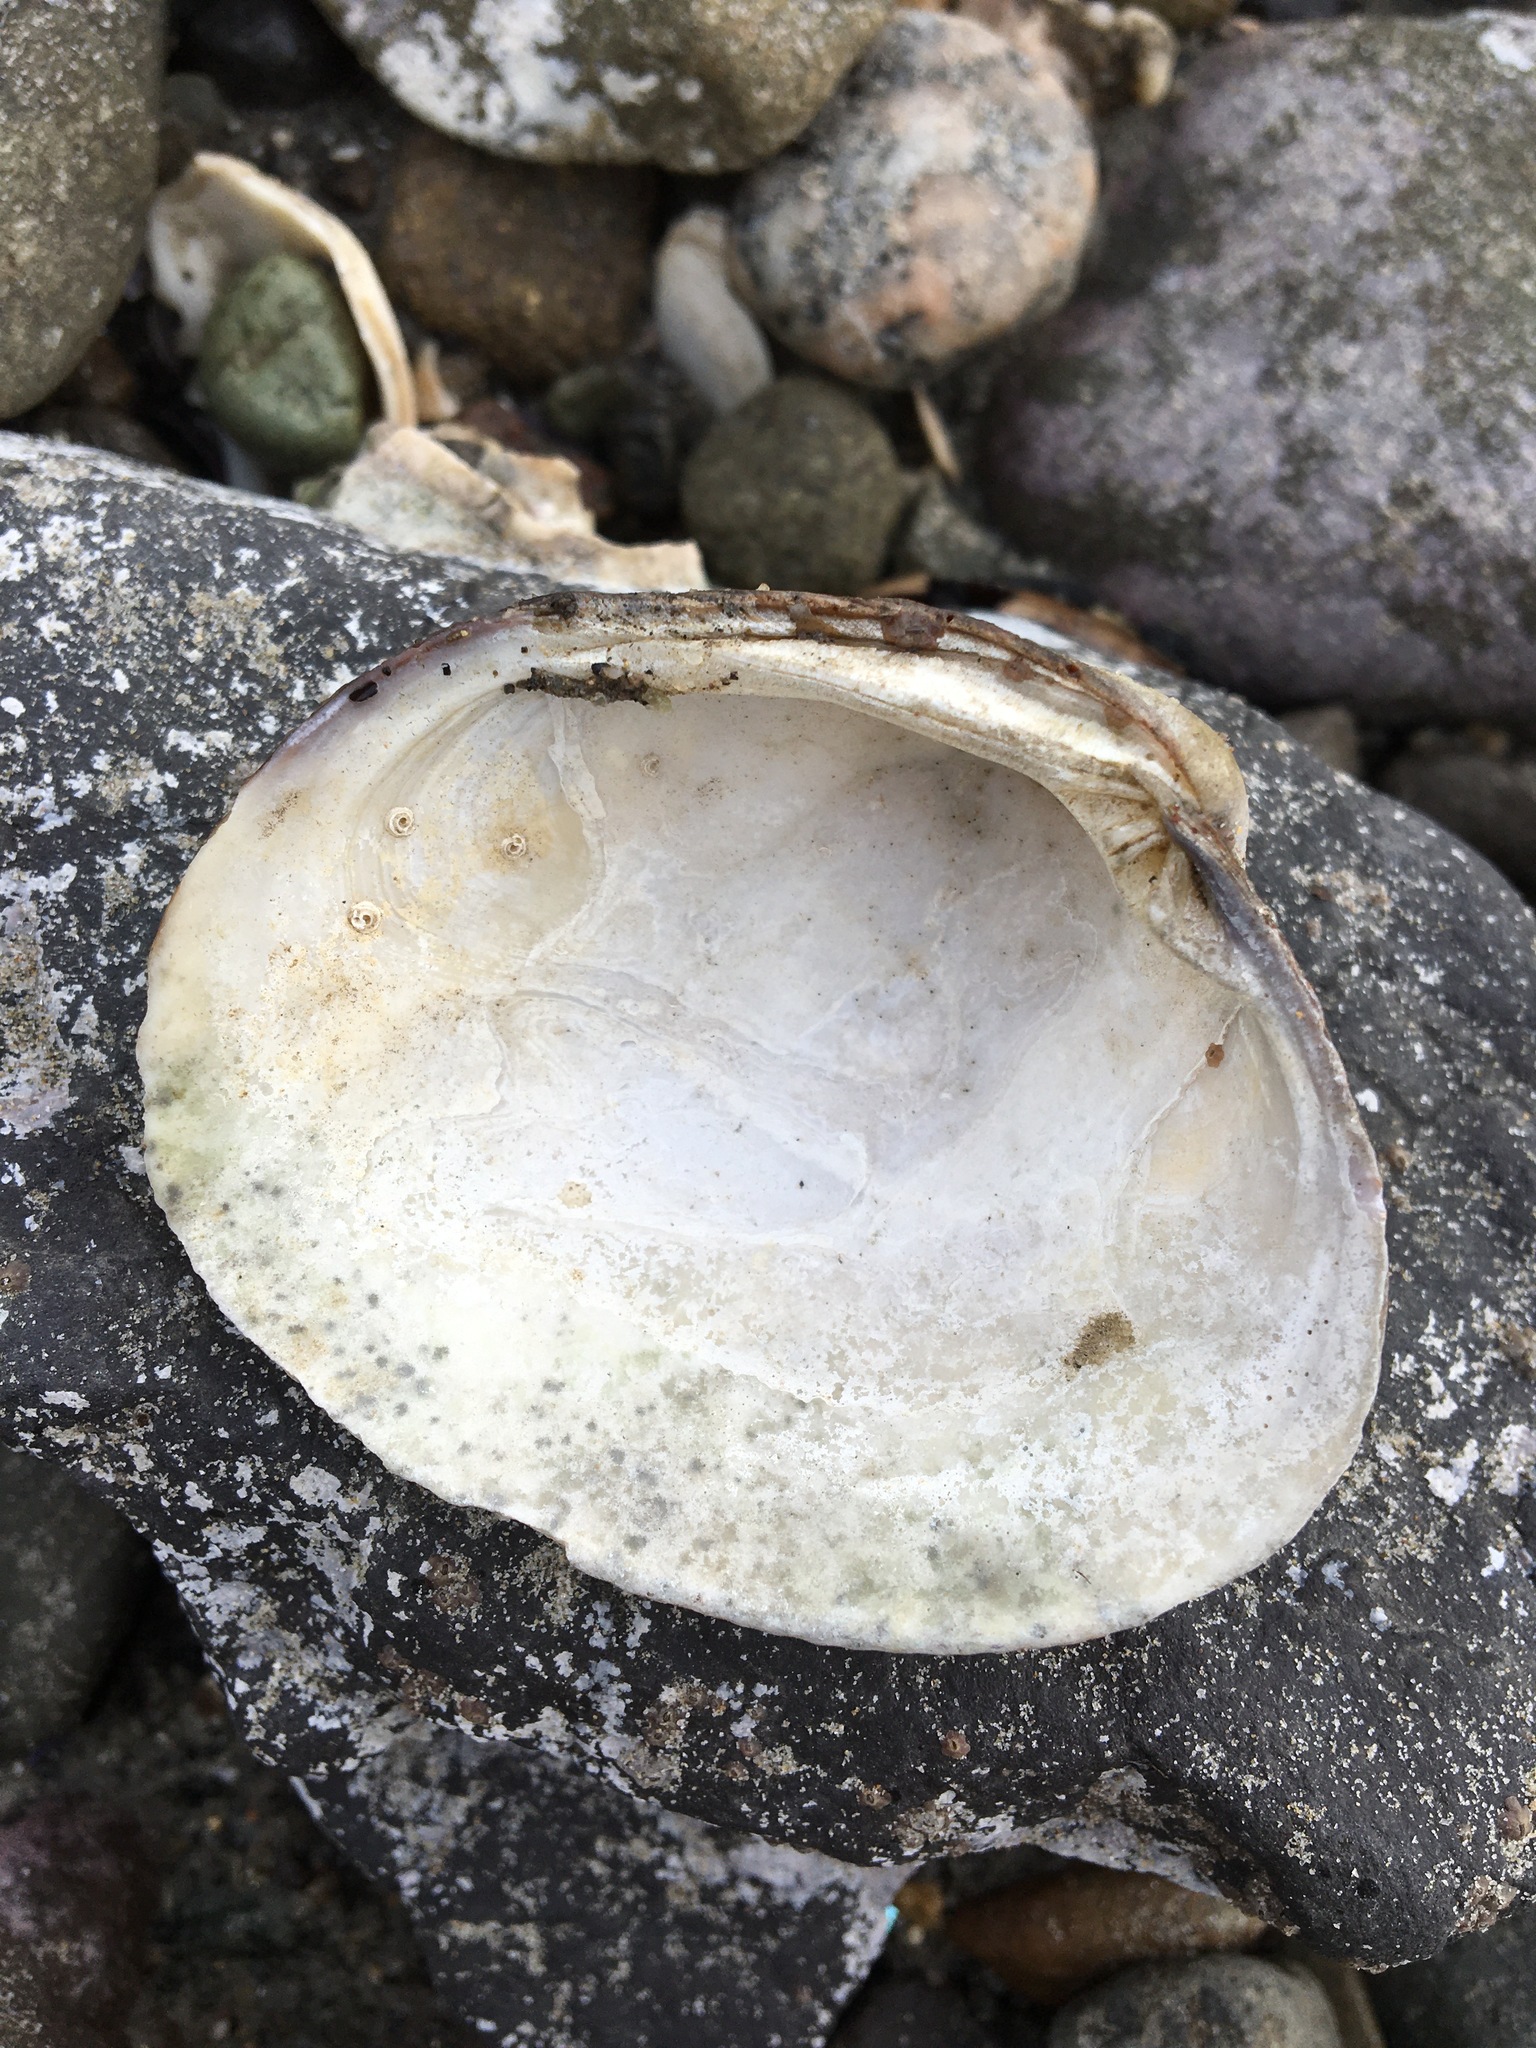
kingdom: Animalia
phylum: Mollusca
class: Bivalvia
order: Venerida
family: Veneridae
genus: Leukoma
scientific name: Leukoma staminea
